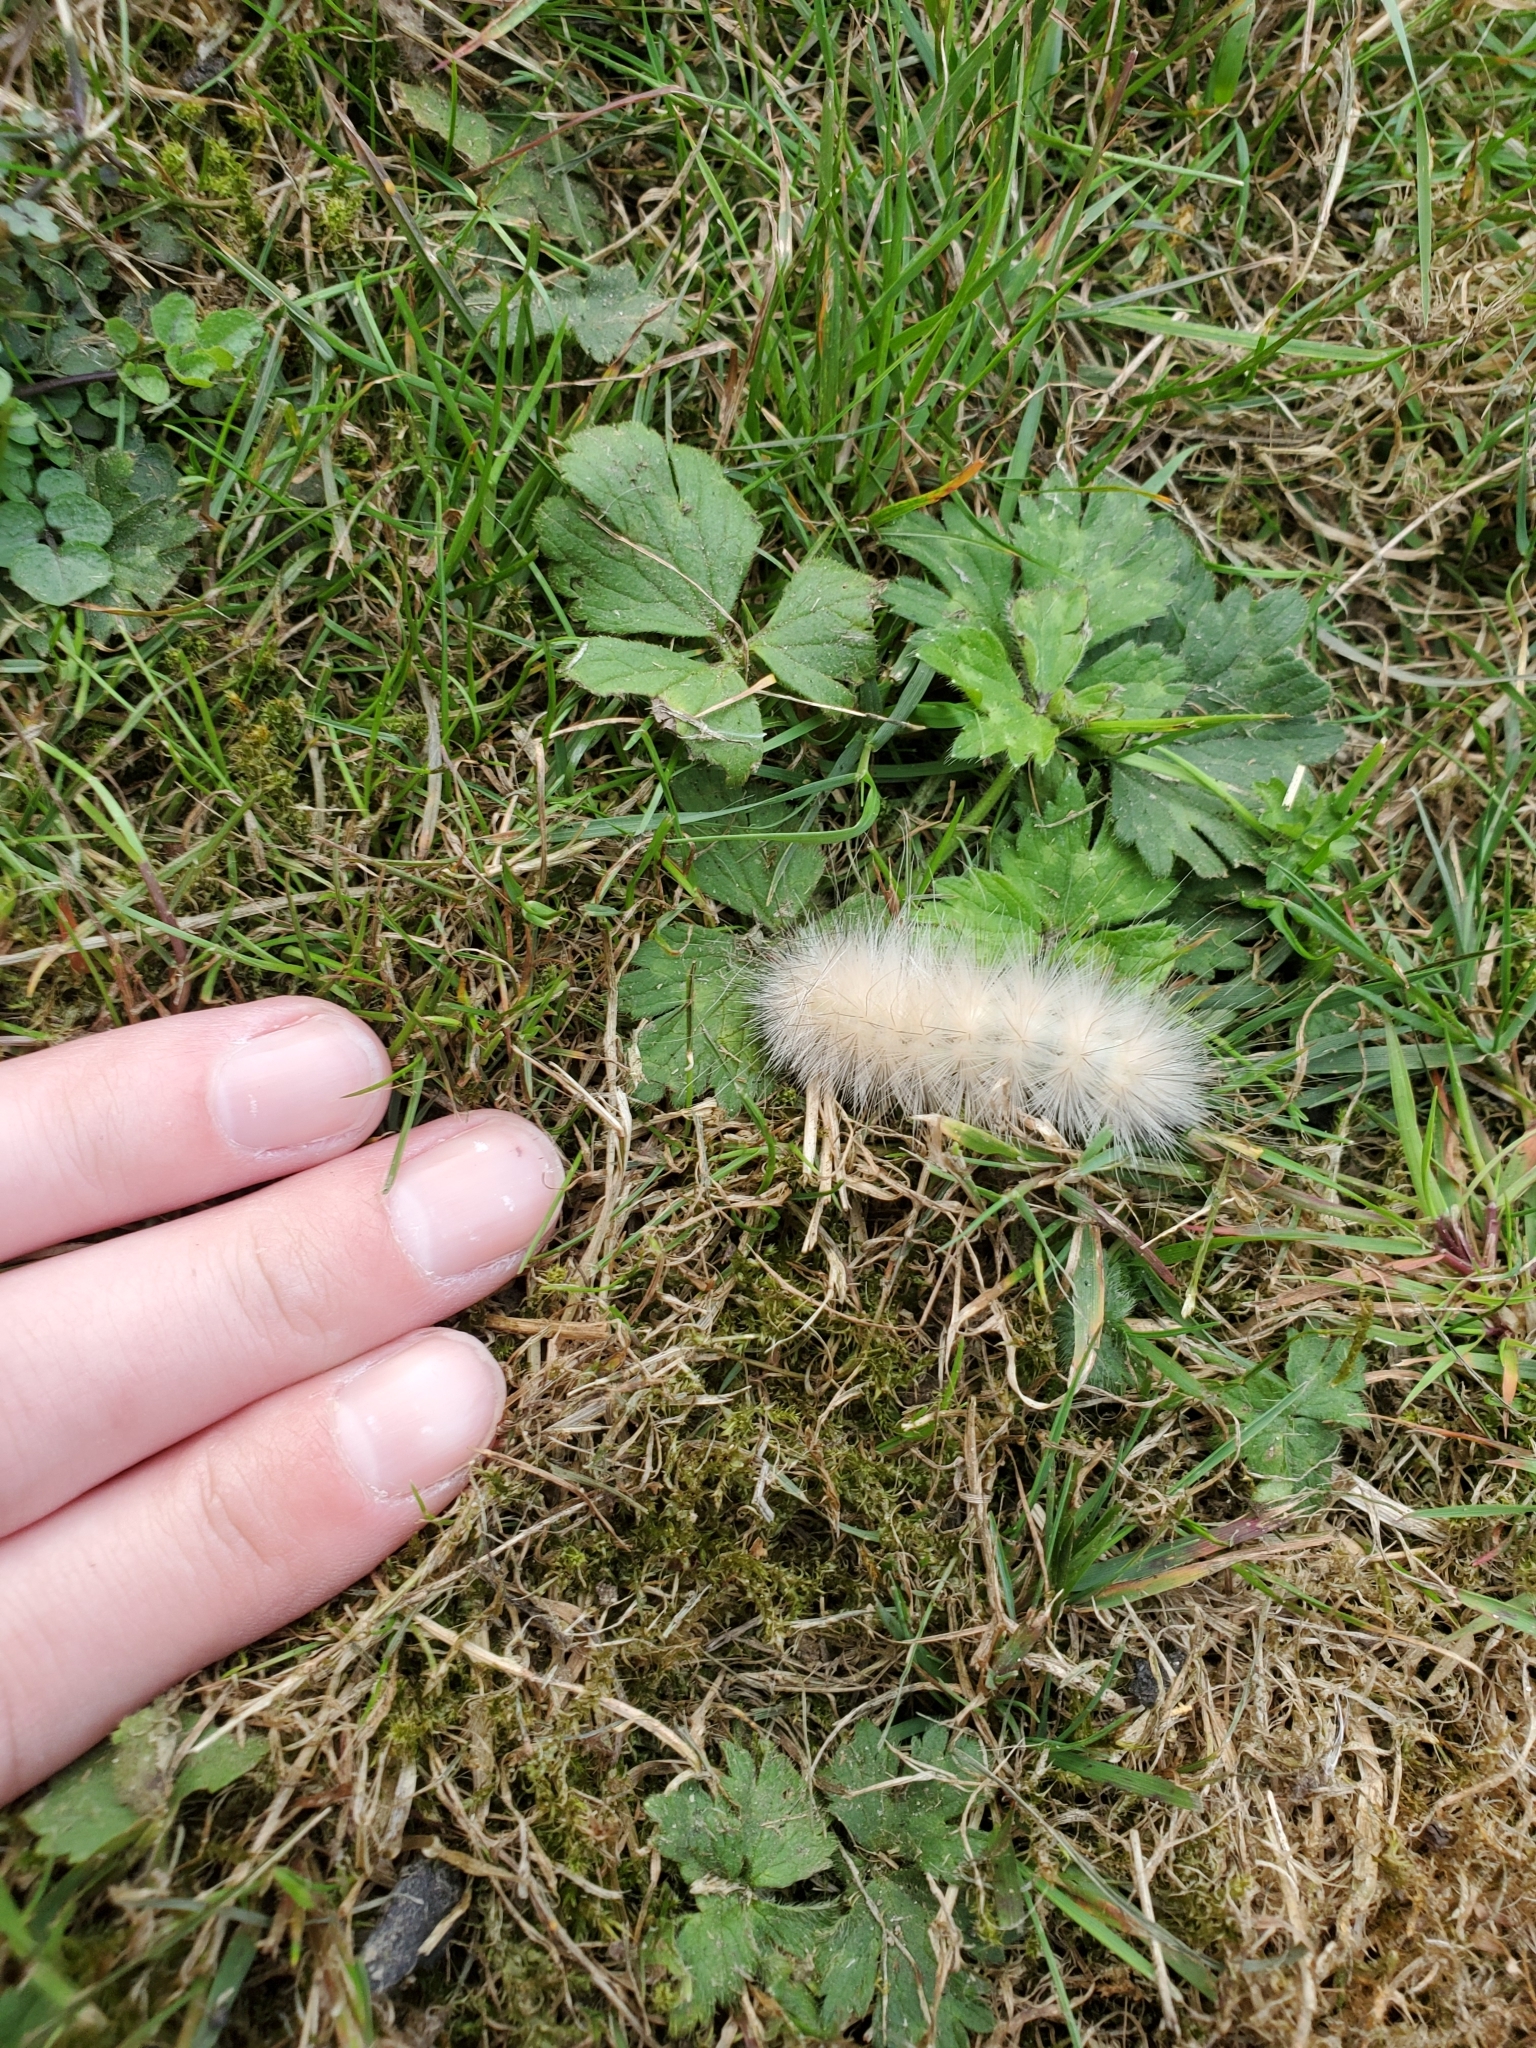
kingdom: Animalia
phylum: Arthropoda
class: Insecta
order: Lepidoptera
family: Erebidae
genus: Spilosoma
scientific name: Spilosoma virginica
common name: Virginia tiger moth
